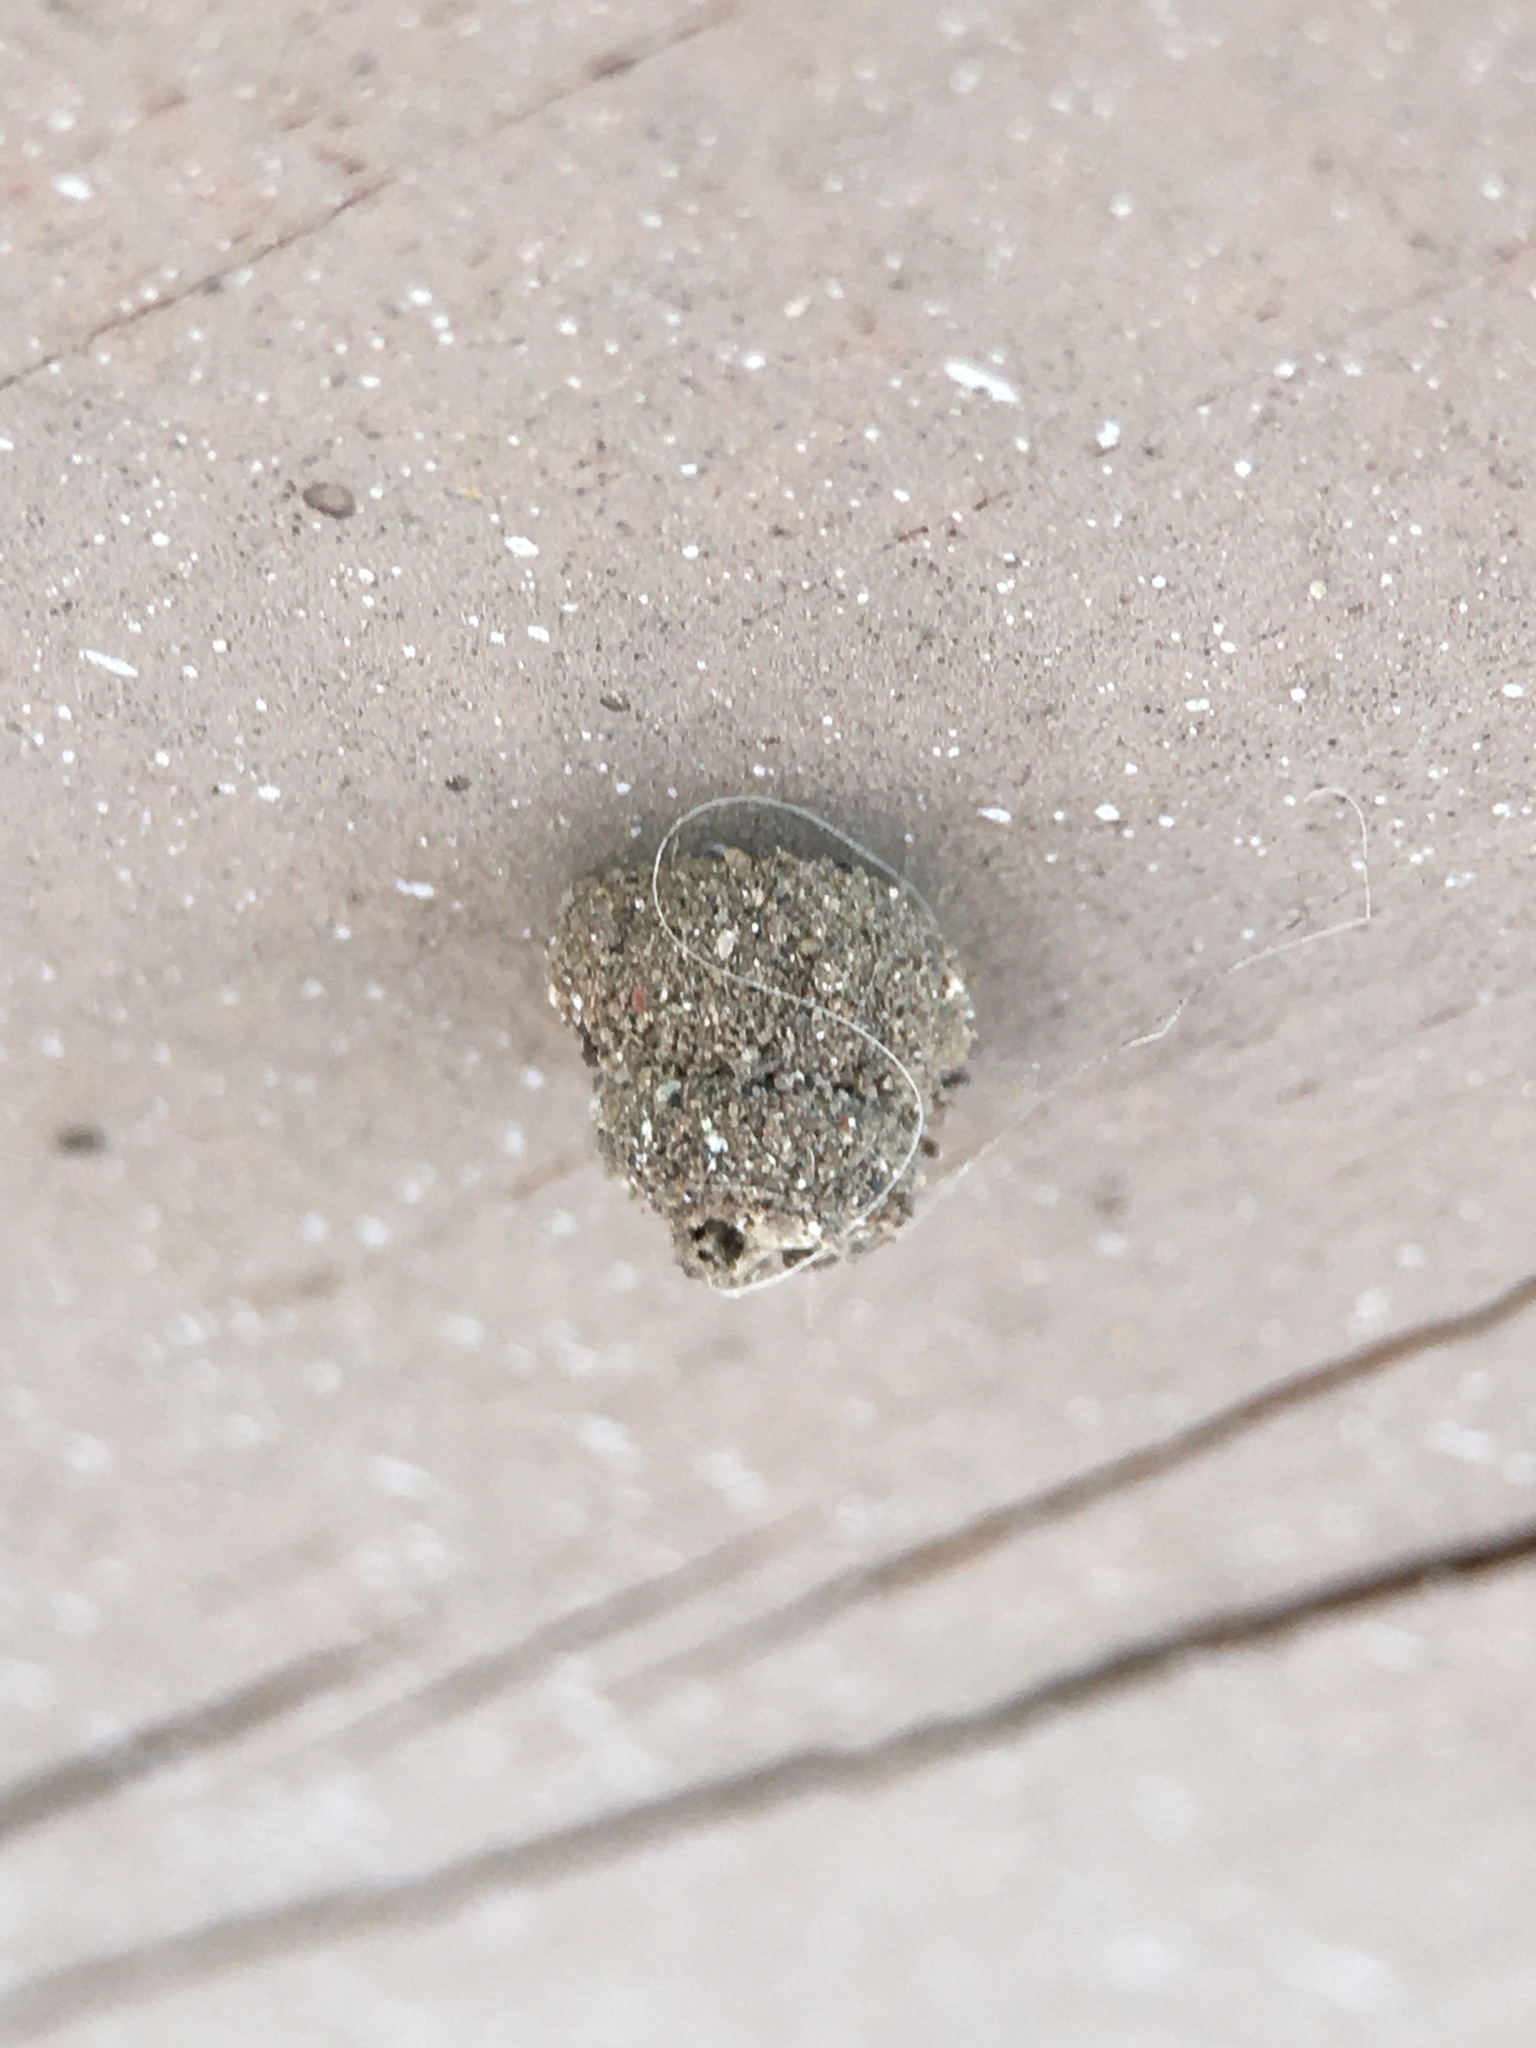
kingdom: Animalia
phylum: Arthropoda
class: Insecta
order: Lepidoptera
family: Psychidae
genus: Apterona
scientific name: Apterona helicoidella
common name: Moth
